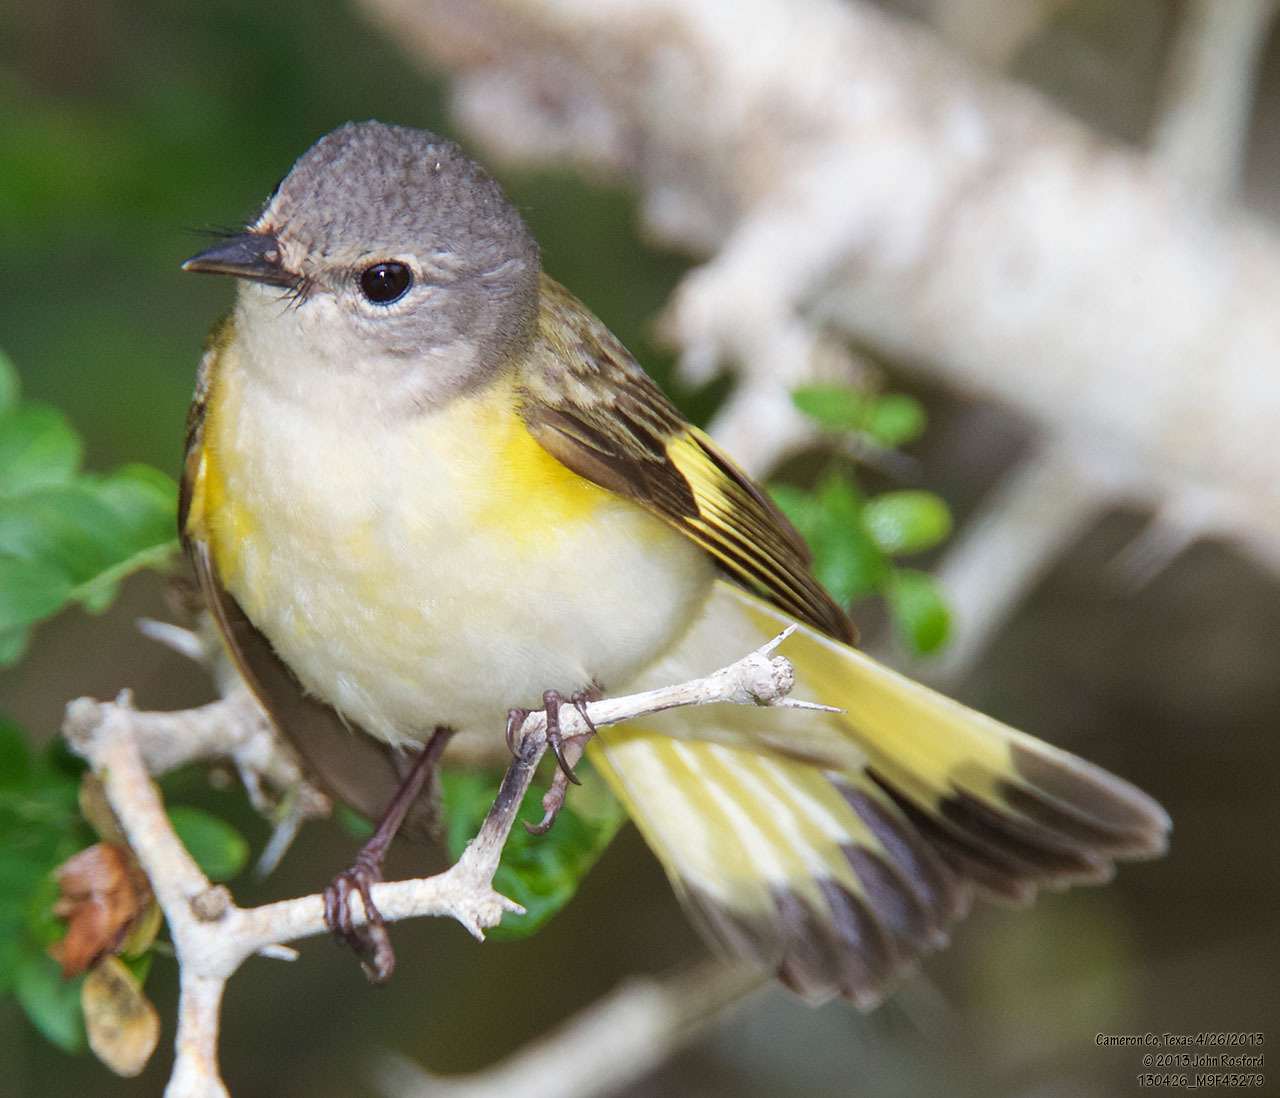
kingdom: Animalia
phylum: Chordata
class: Aves
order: Passeriformes
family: Parulidae
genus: Setophaga
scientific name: Setophaga ruticilla
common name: American redstart
